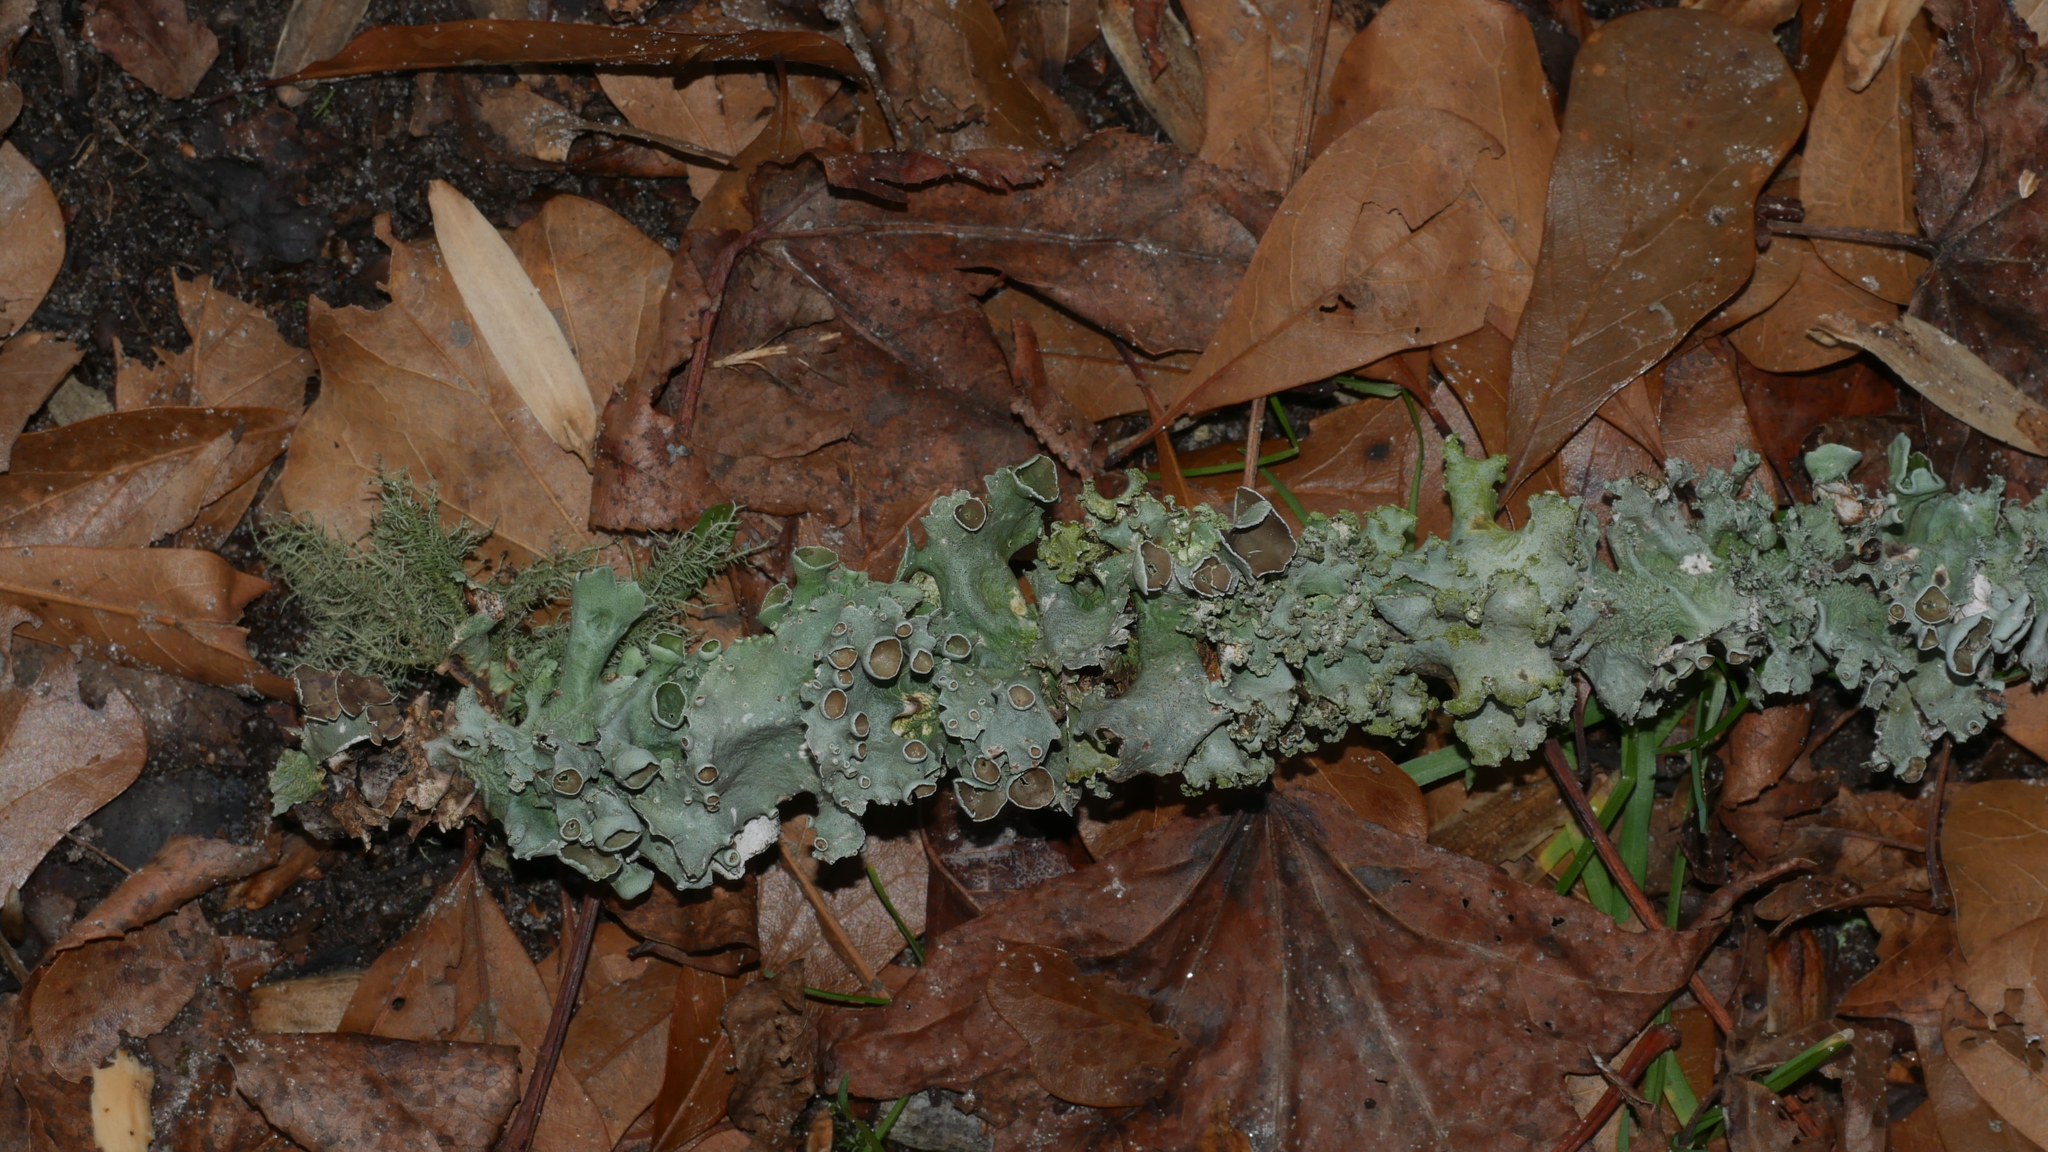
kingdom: Fungi
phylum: Ascomycota
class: Lecanoromycetes
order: Lecanorales
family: Parmeliaceae
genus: Parmotrema
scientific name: Parmotrema perforatum
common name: Perforated ruffle lichen
